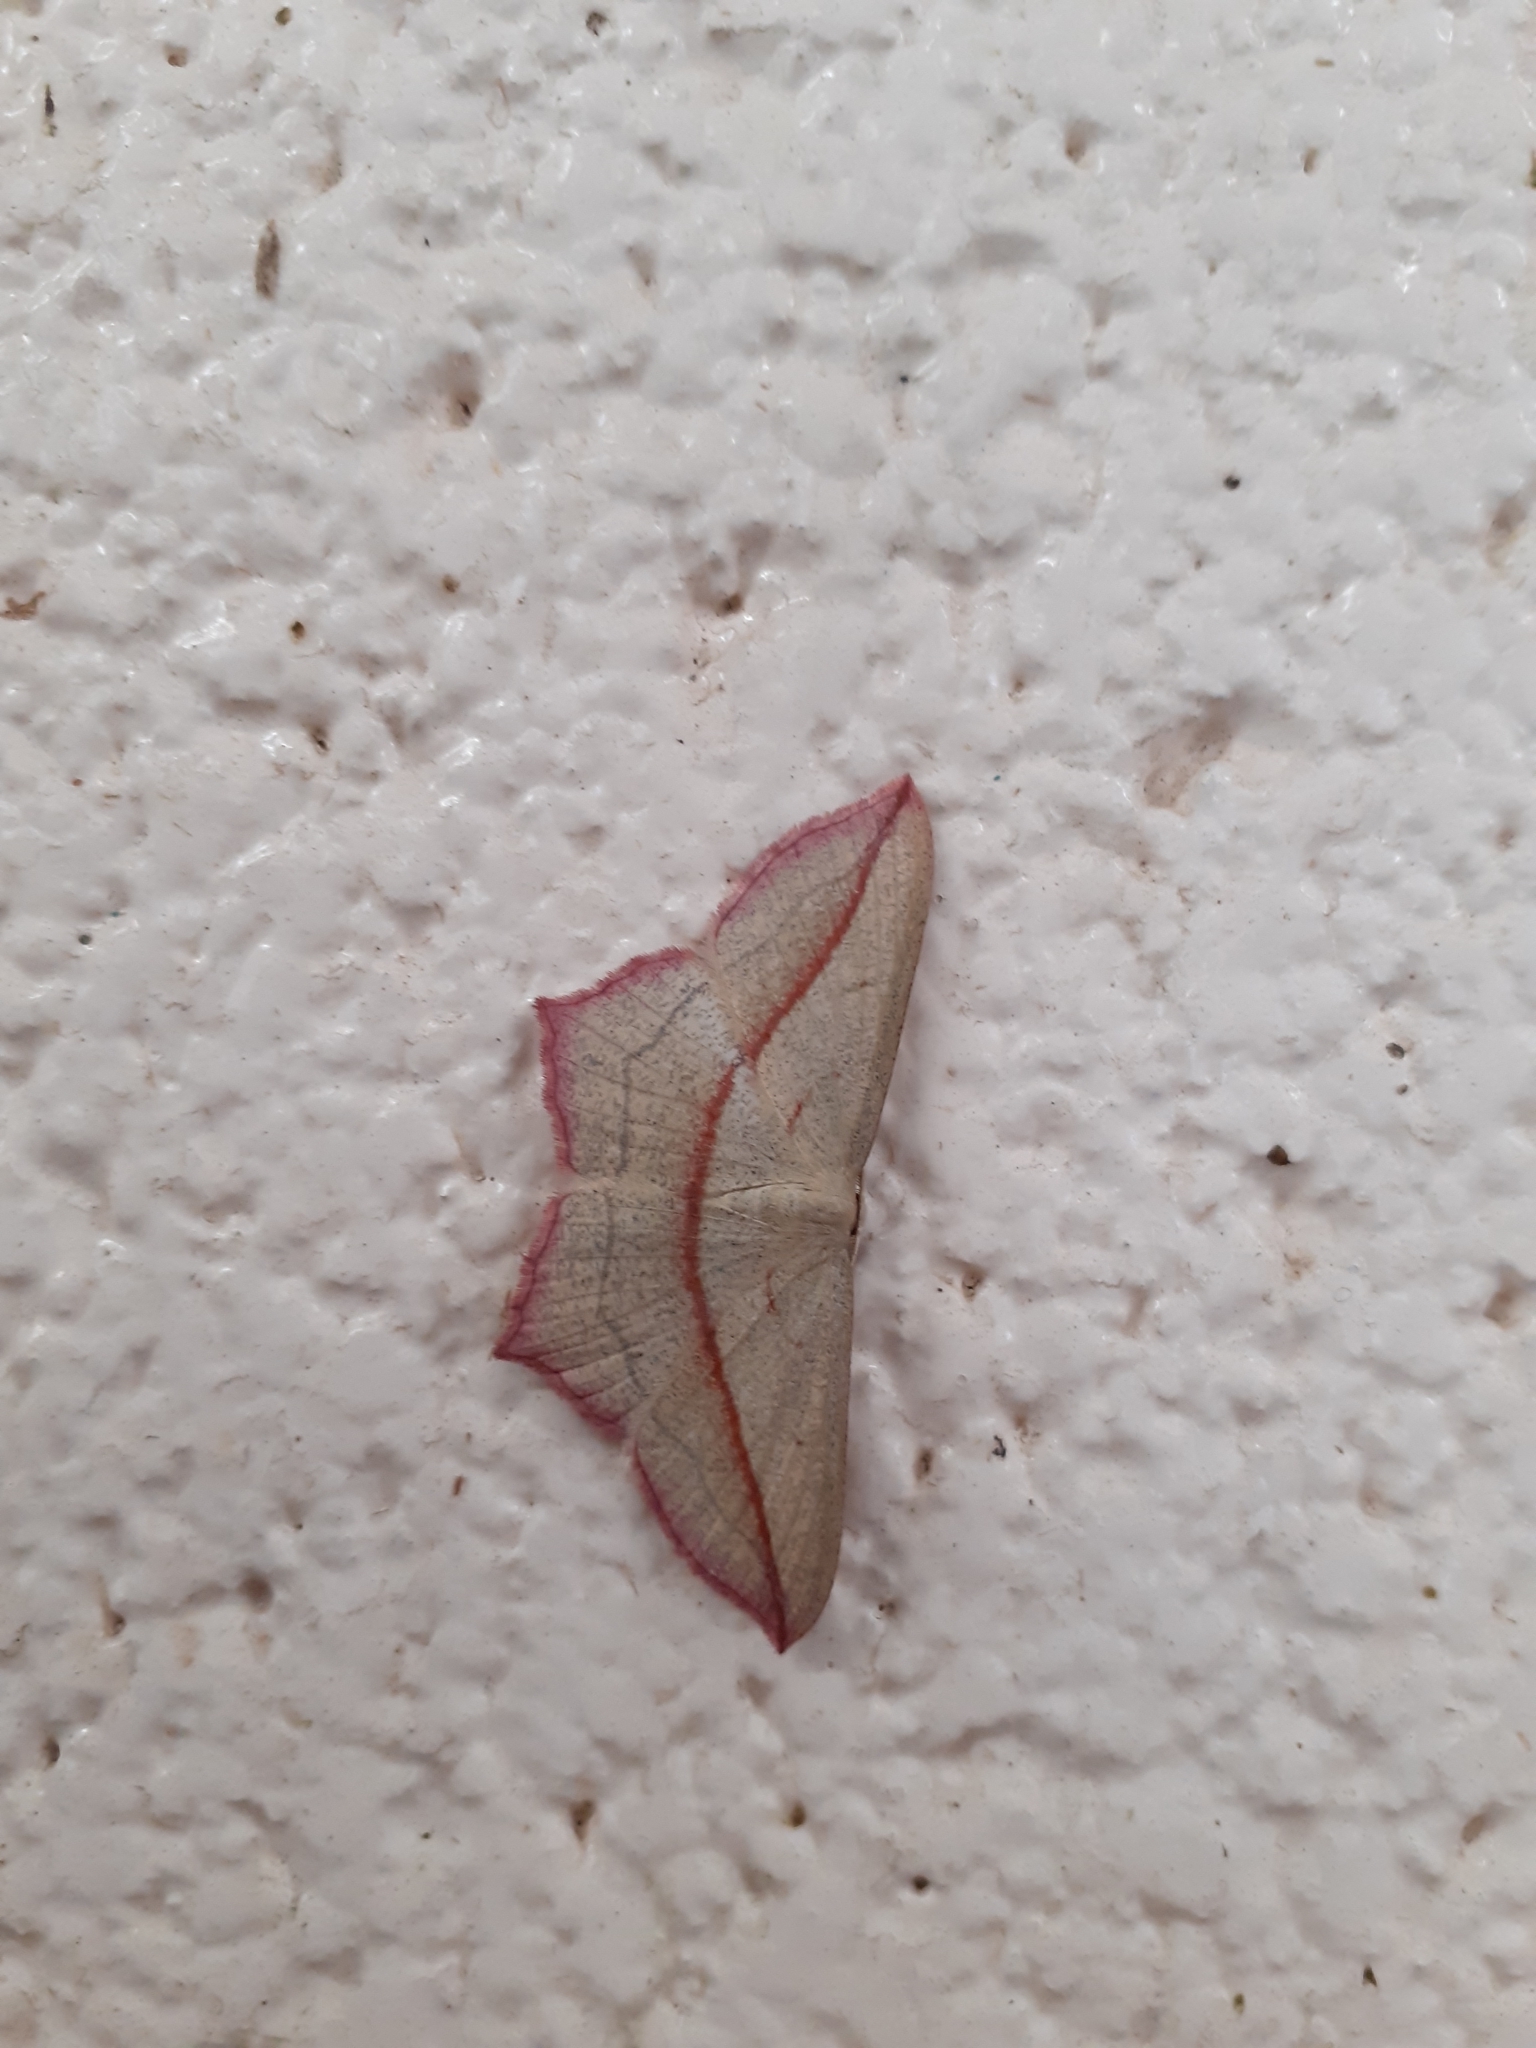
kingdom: Animalia
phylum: Arthropoda
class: Insecta
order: Lepidoptera
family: Geometridae
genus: Timandra
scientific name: Timandra comae
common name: Blood-vein
